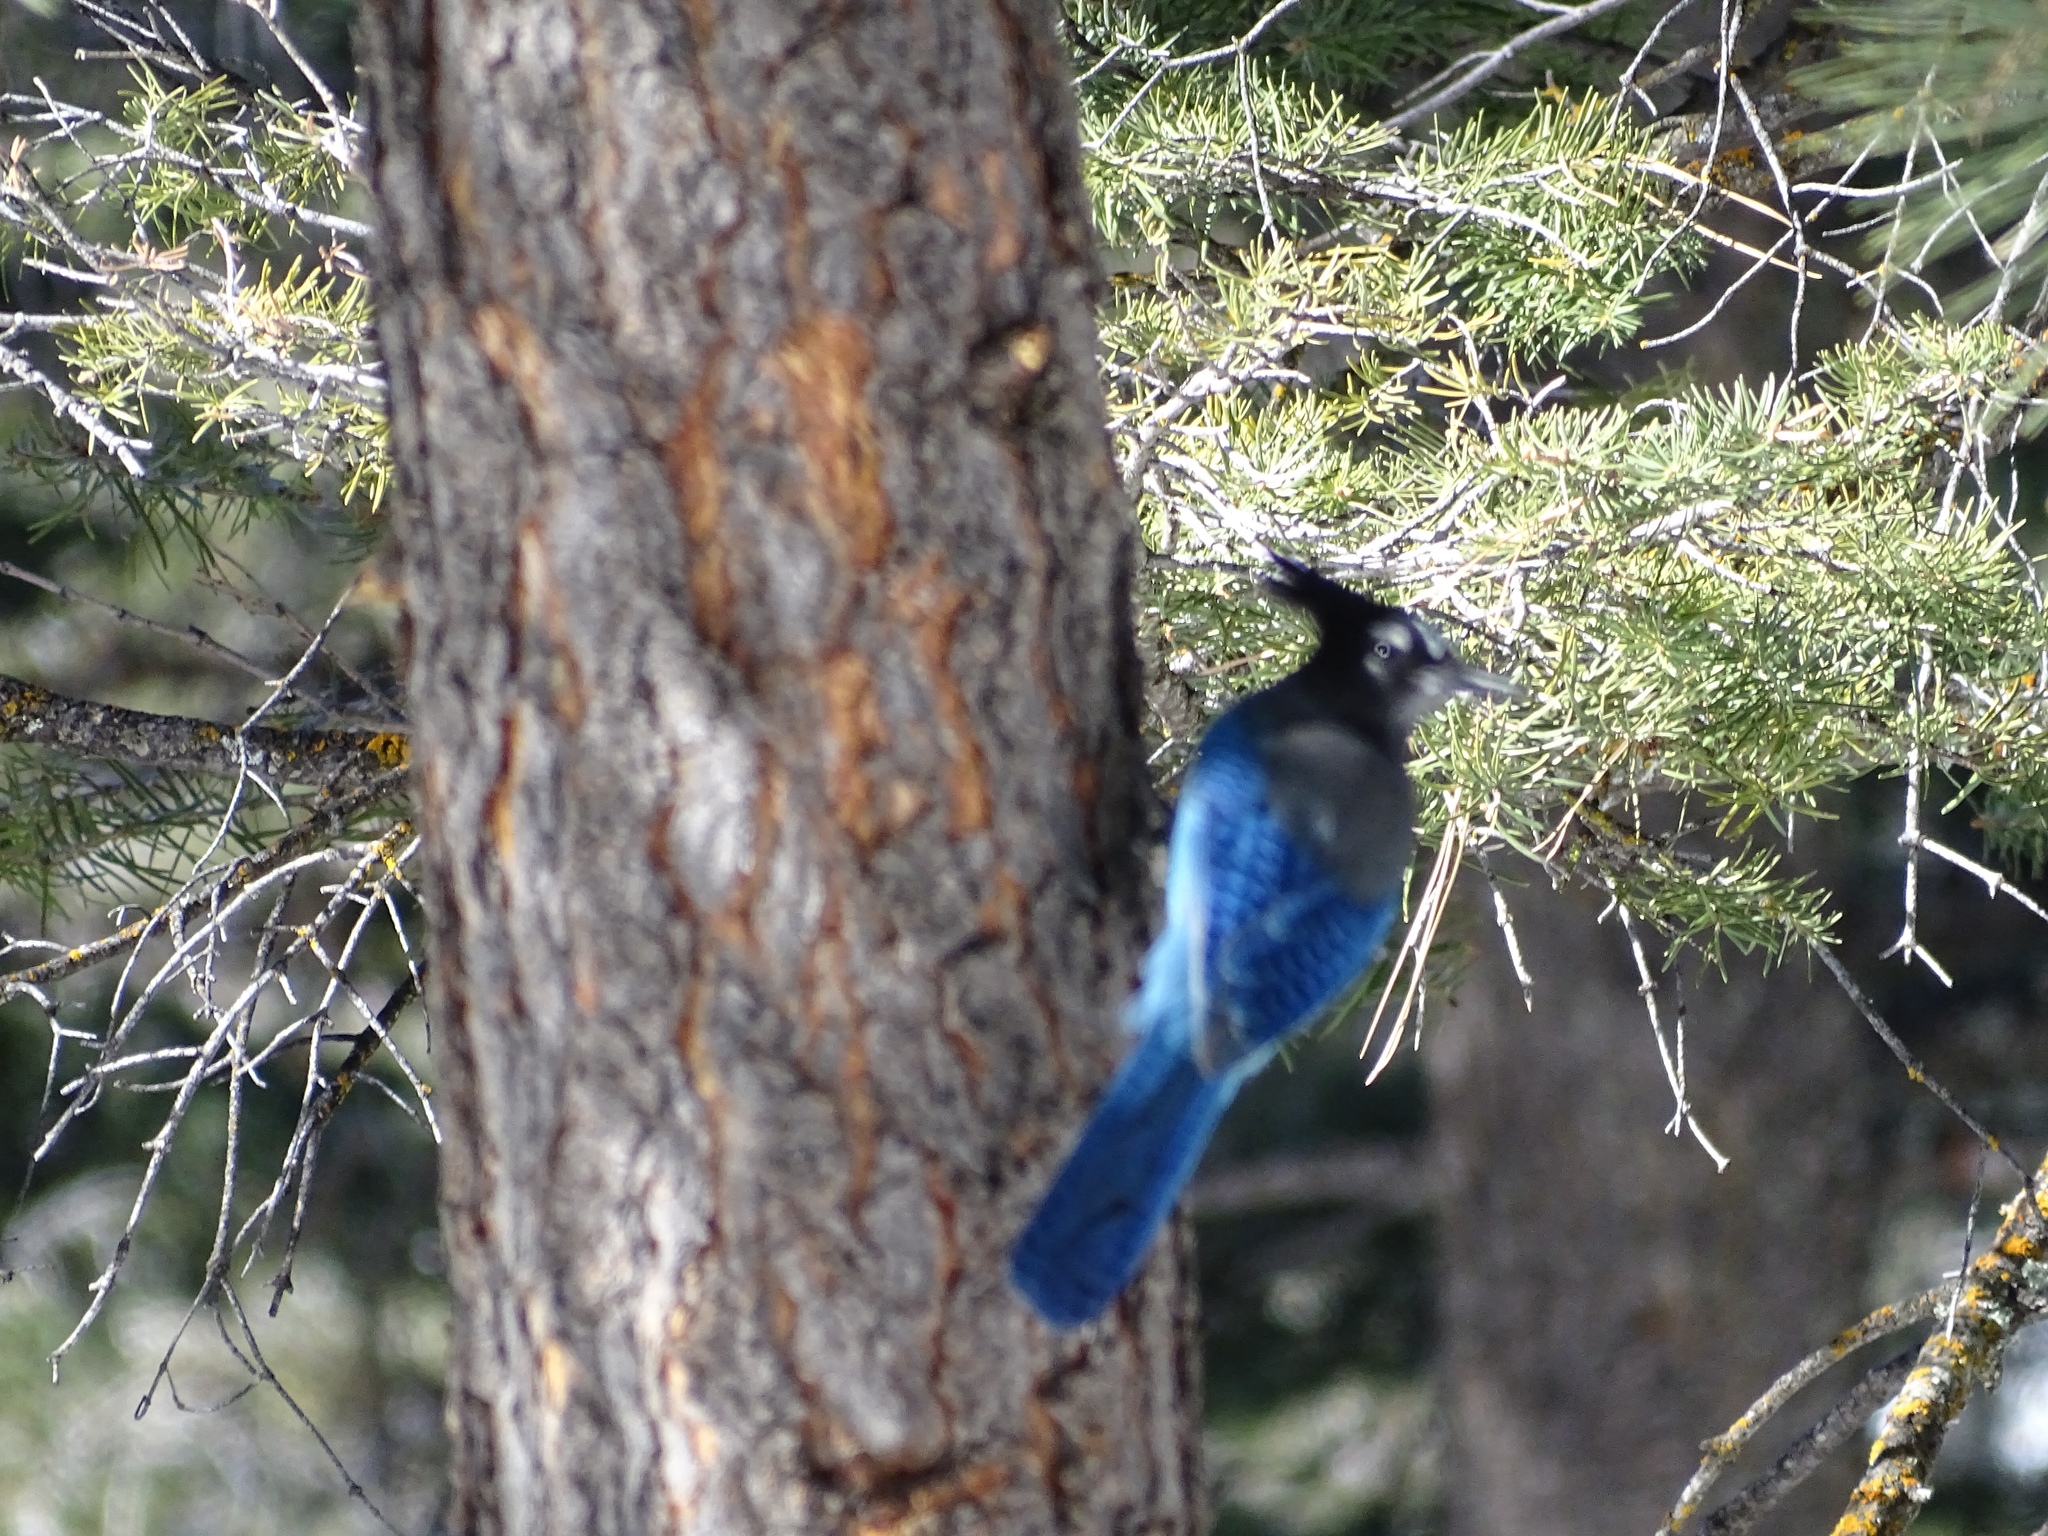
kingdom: Animalia
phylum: Chordata
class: Aves
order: Passeriformes
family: Corvidae
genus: Cyanocitta
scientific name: Cyanocitta stelleri
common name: Steller's jay
